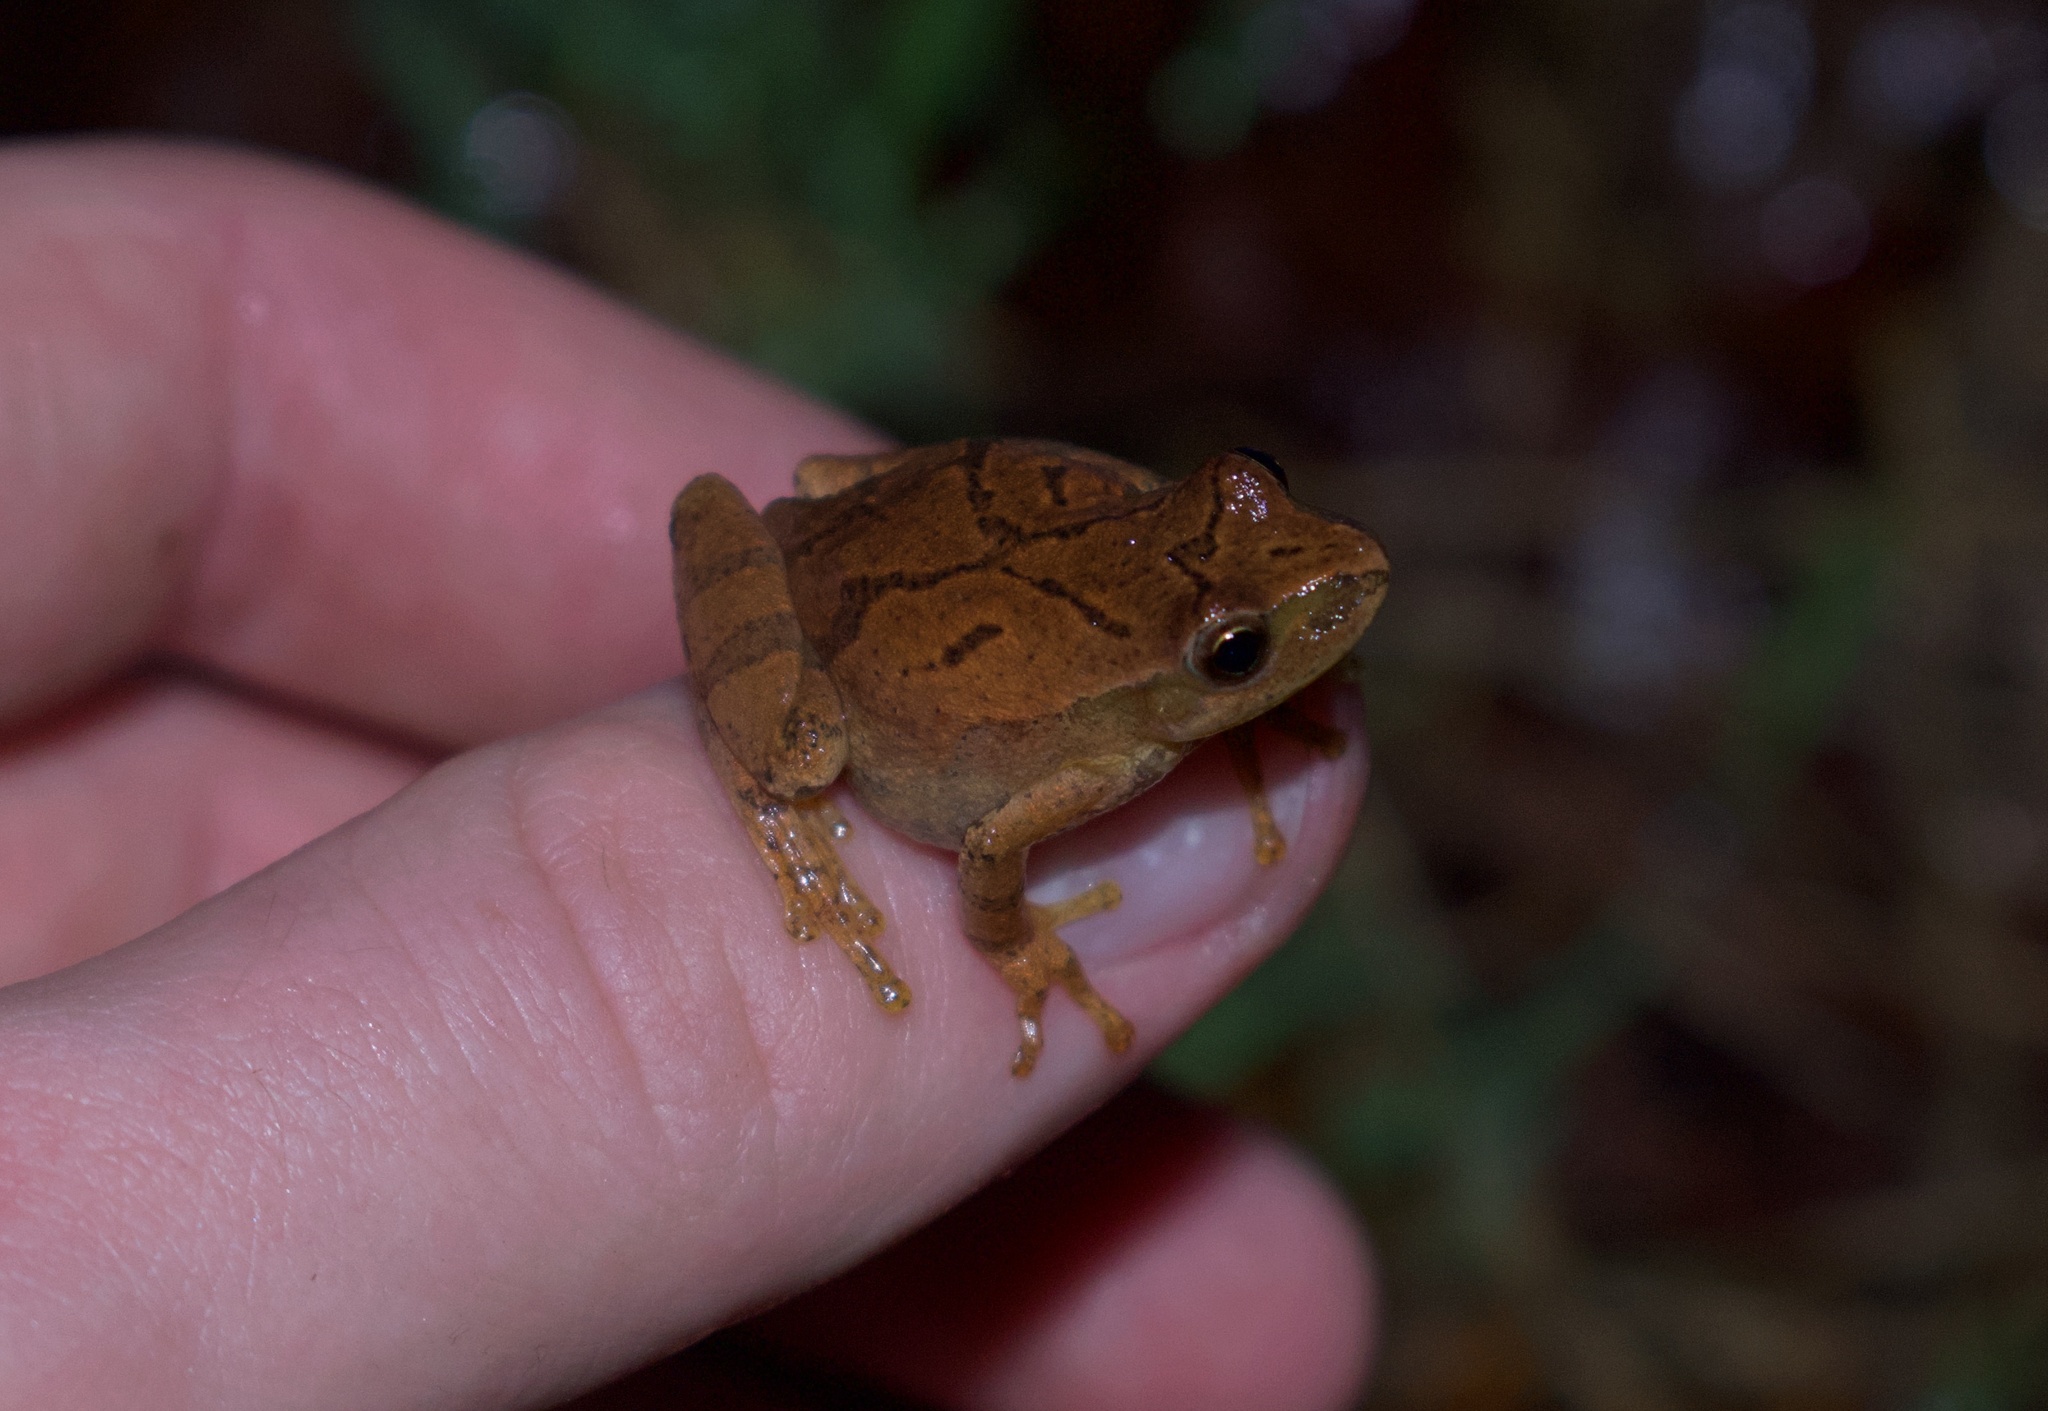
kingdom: Animalia
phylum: Chordata
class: Amphibia
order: Anura
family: Hylidae
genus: Pseudacris
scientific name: Pseudacris crucifer
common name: Spring peeper
